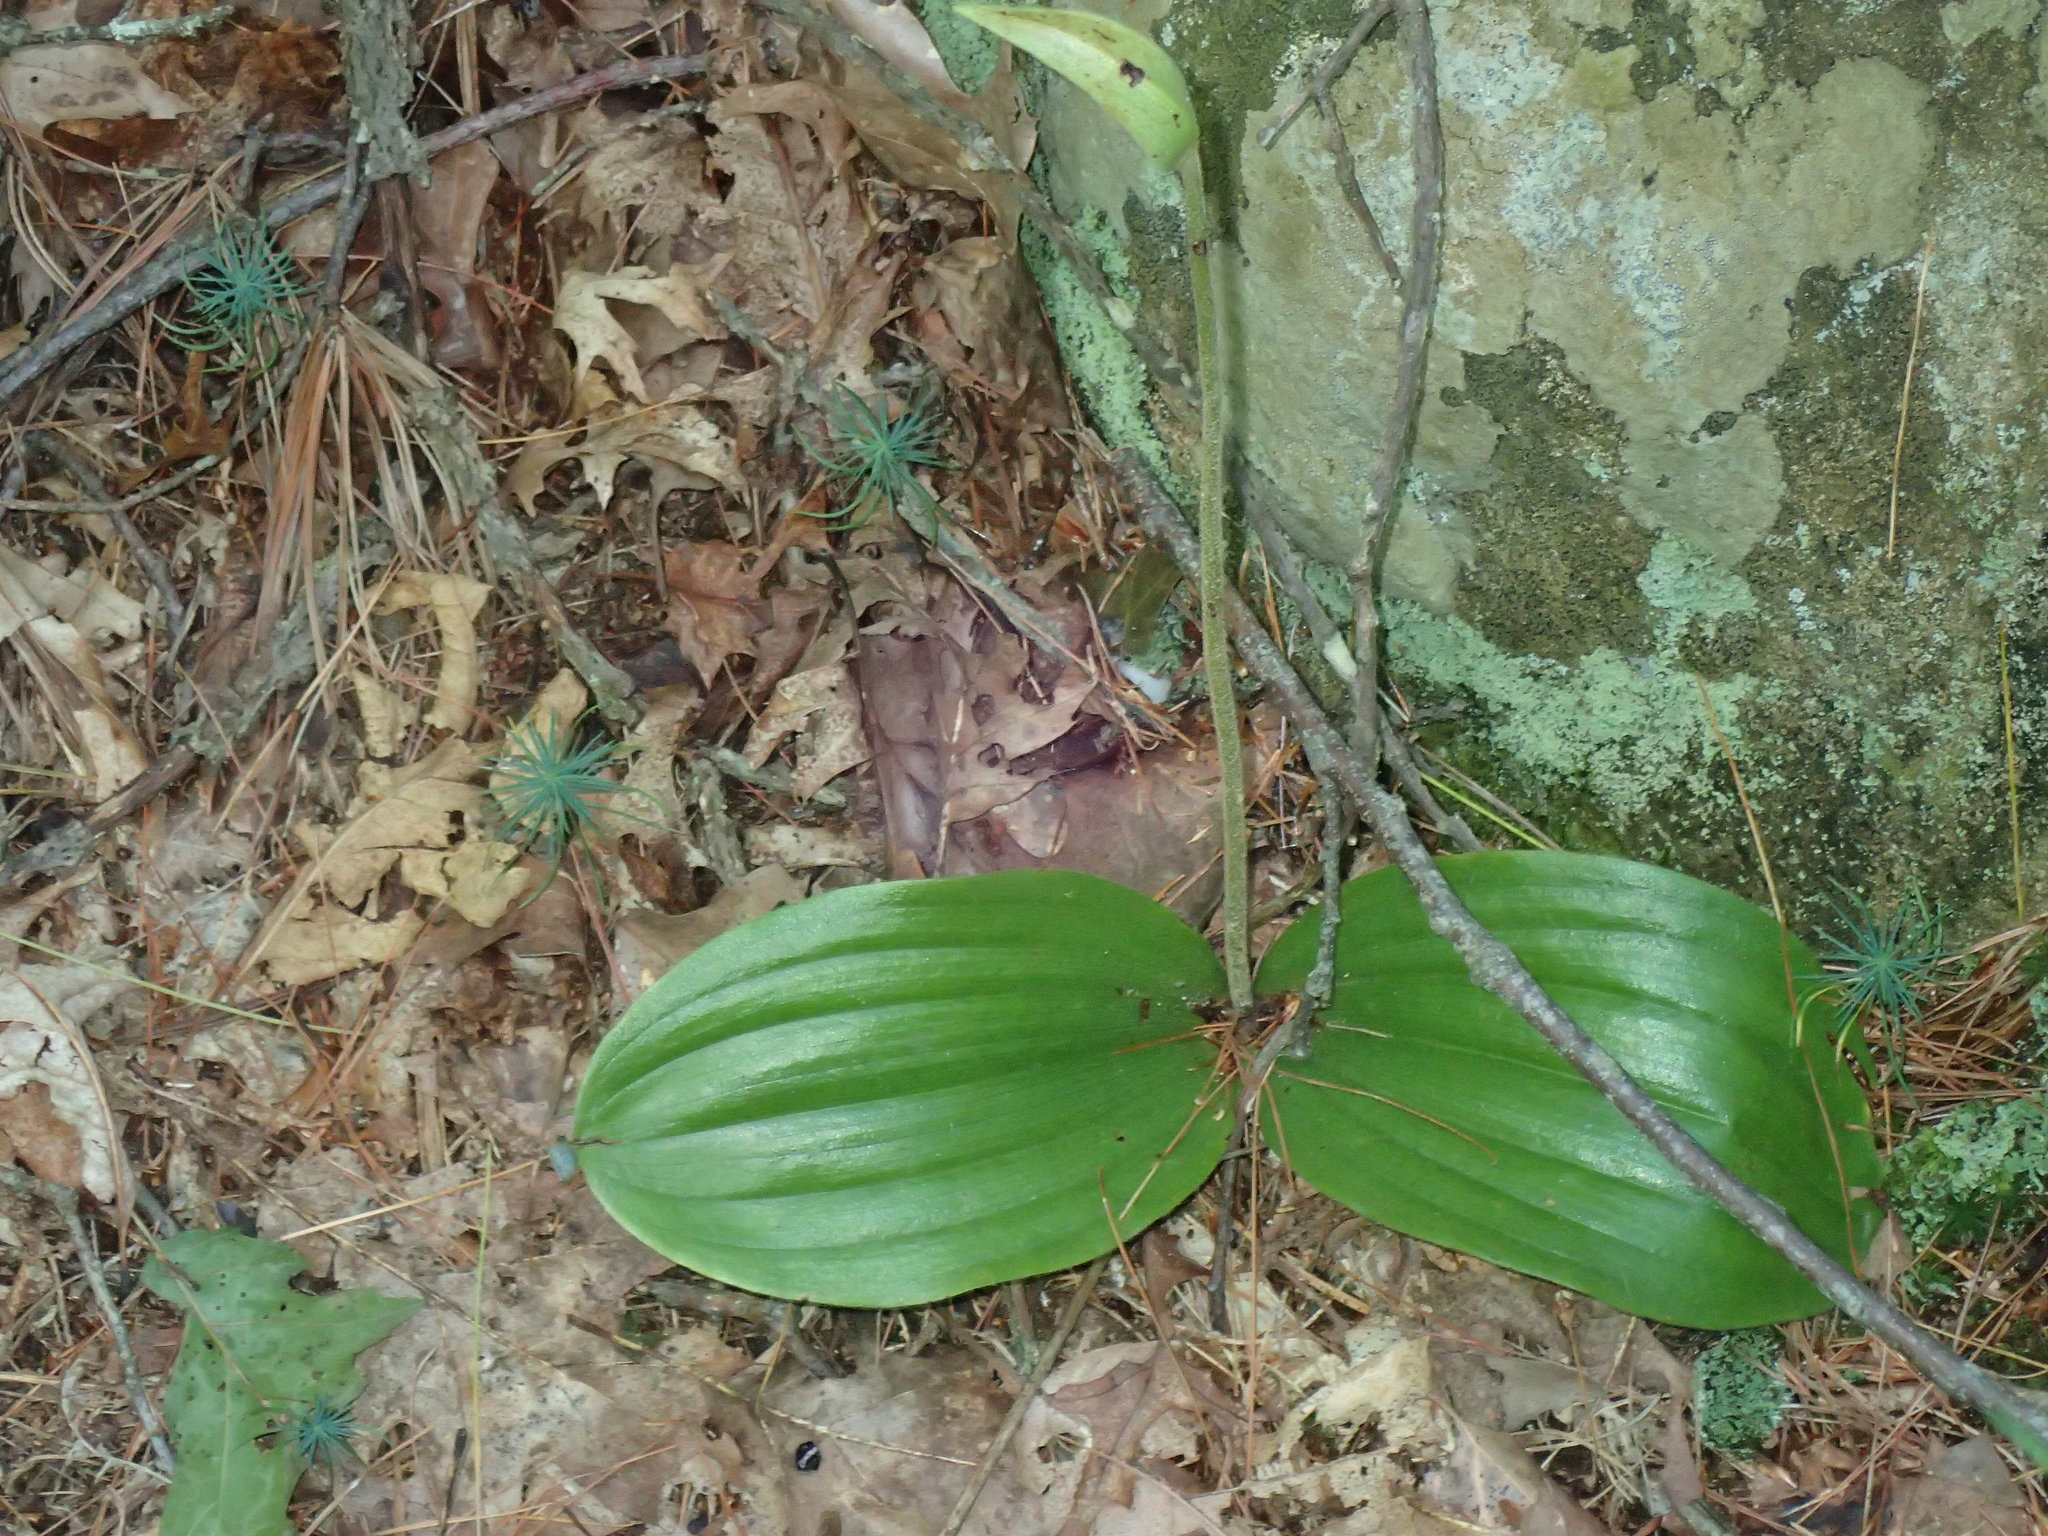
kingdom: Plantae
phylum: Tracheophyta
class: Liliopsida
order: Asparagales
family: Orchidaceae
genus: Cypripedium
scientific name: Cypripedium acaule
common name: Pink lady's-slipper
